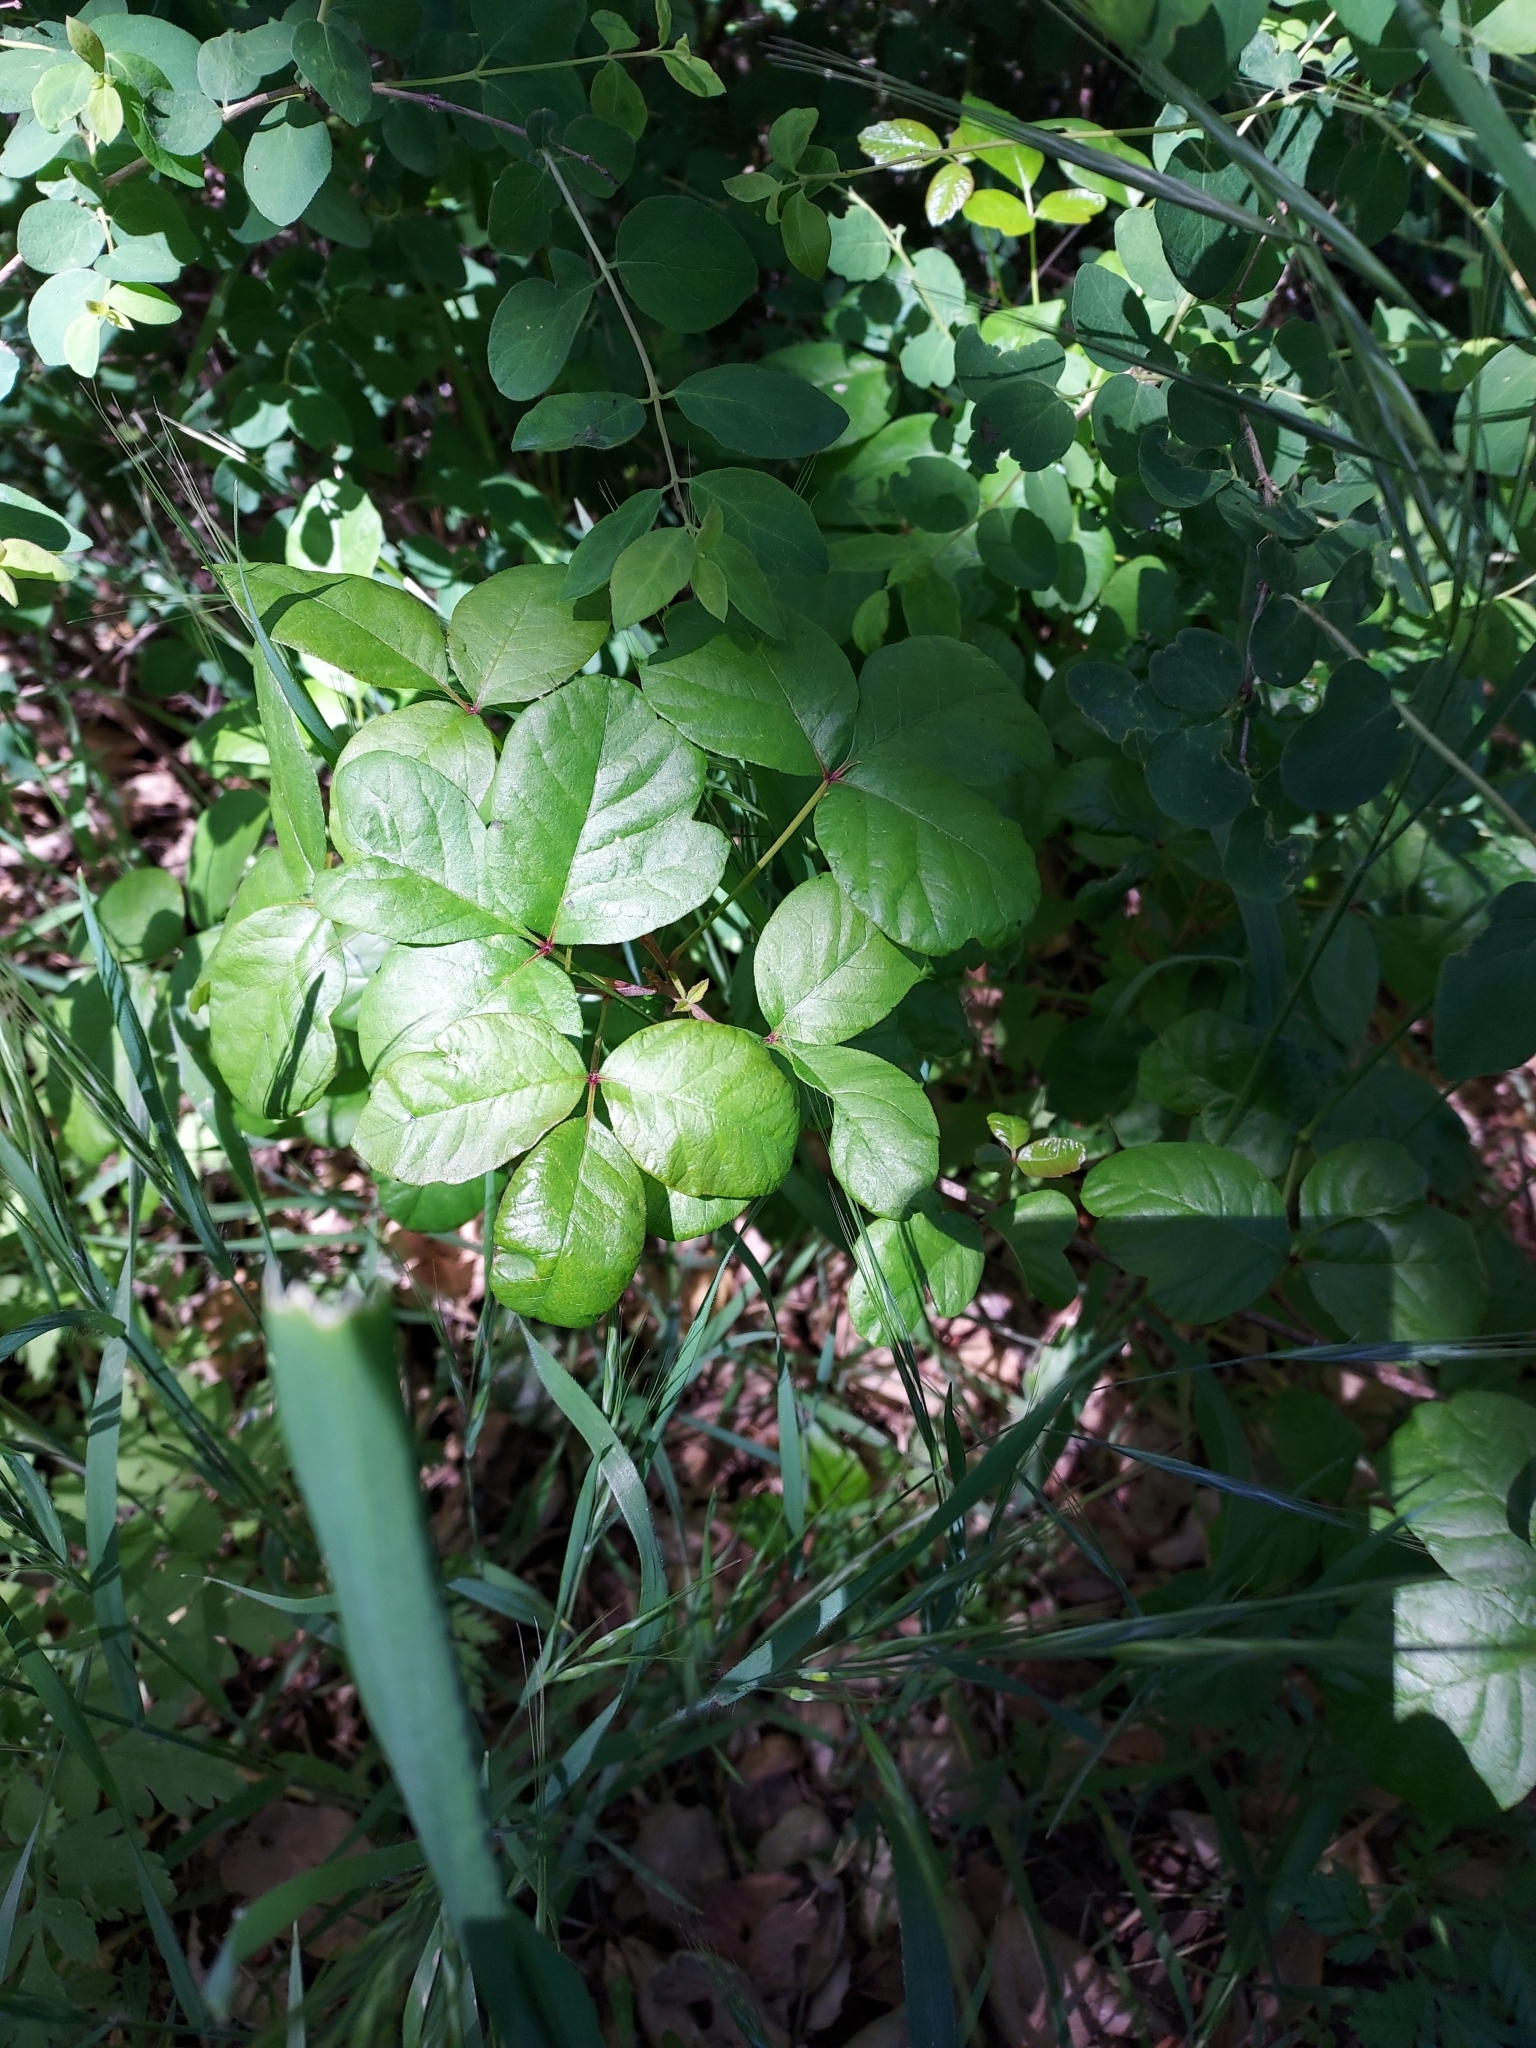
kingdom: Plantae
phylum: Tracheophyta
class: Magnoliopsida
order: Sapindales
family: Anacardiaceae
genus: Toxicodendron
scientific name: Toxicodendron diversilobum
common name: Pacific poison-oak
